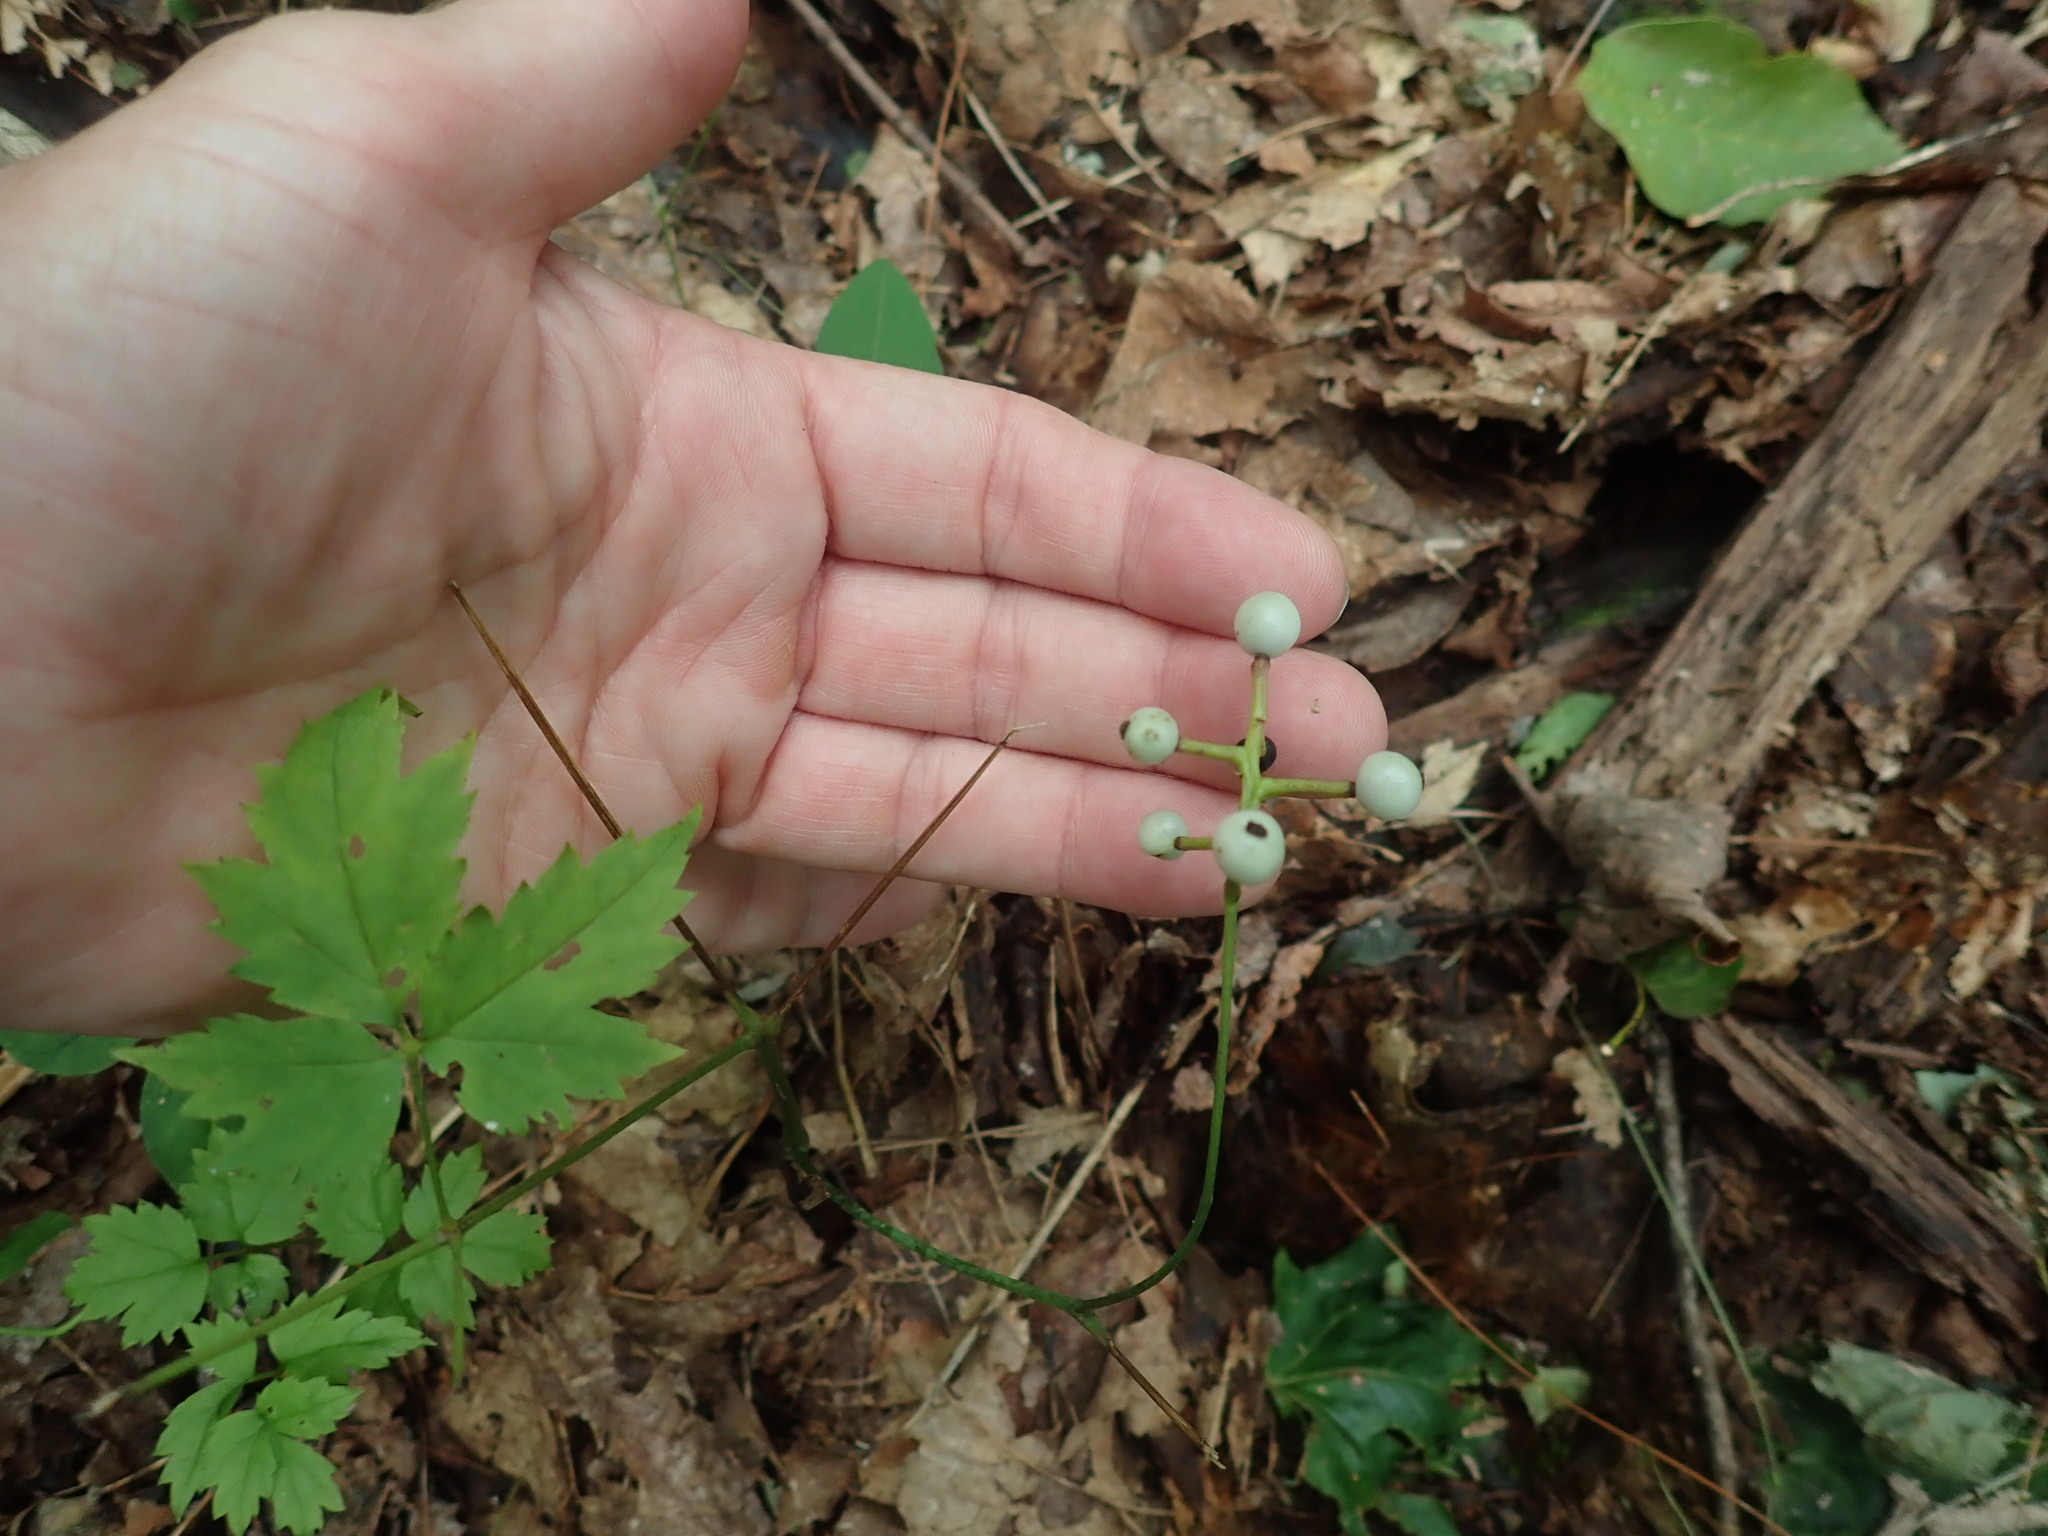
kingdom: Plantae
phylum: Tracheophyta
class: Magnoliopsida
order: Ranunculales
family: Ranunculaceae
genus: Actaea
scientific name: Actaea pachypoda
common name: Doll's-eyes
